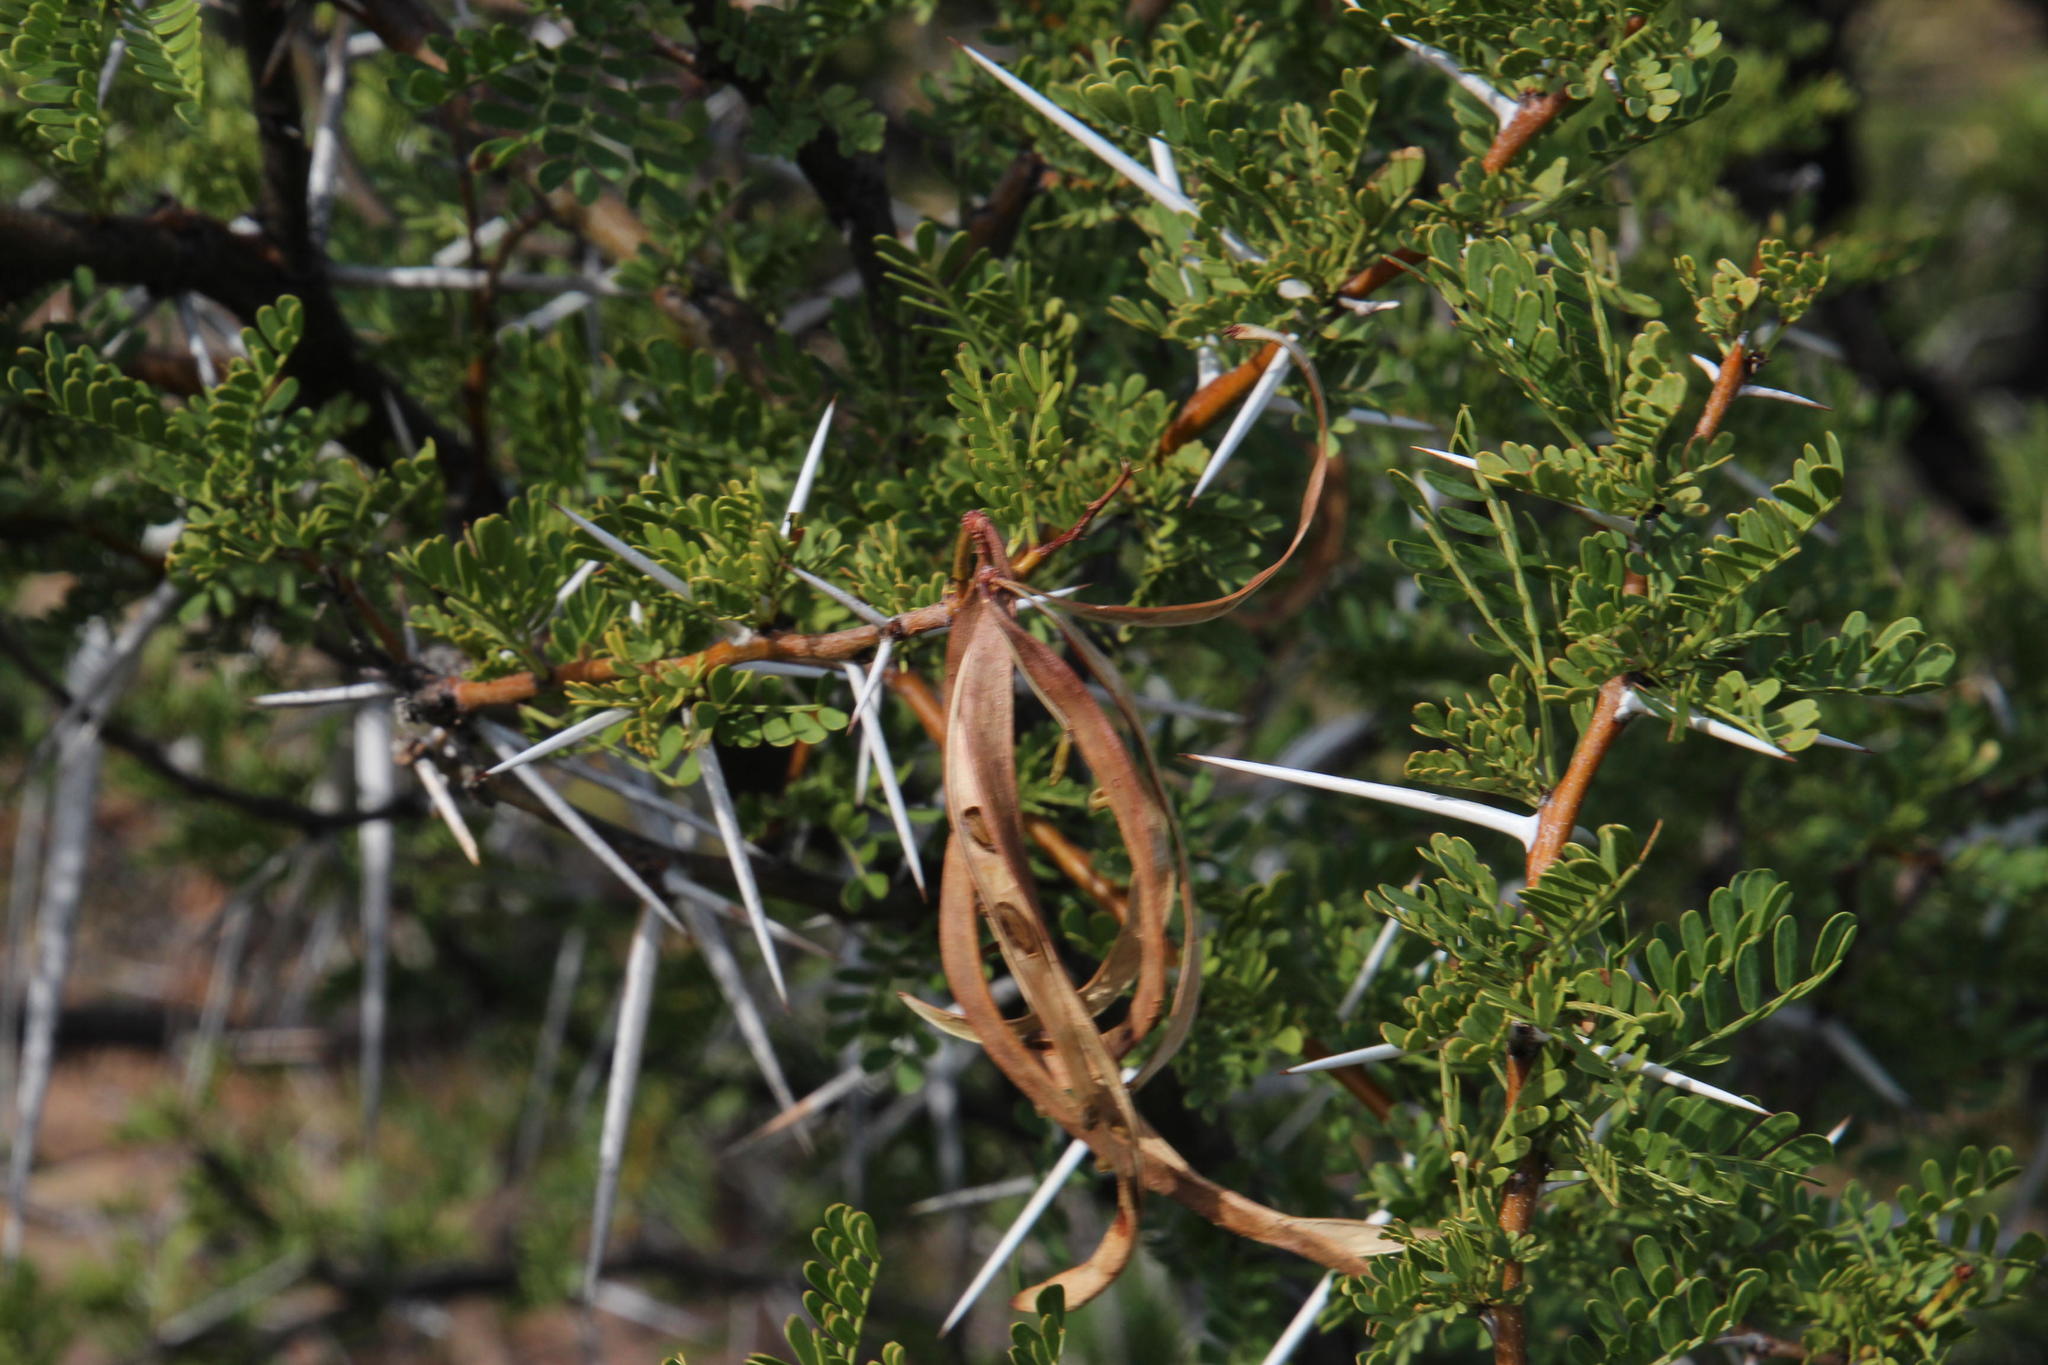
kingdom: Plantae
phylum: Tracheophyta
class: Magnoliopsida
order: Fabales
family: Fabaceae
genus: Vachellia
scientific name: Vachellia karroo
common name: Sweet thorn
